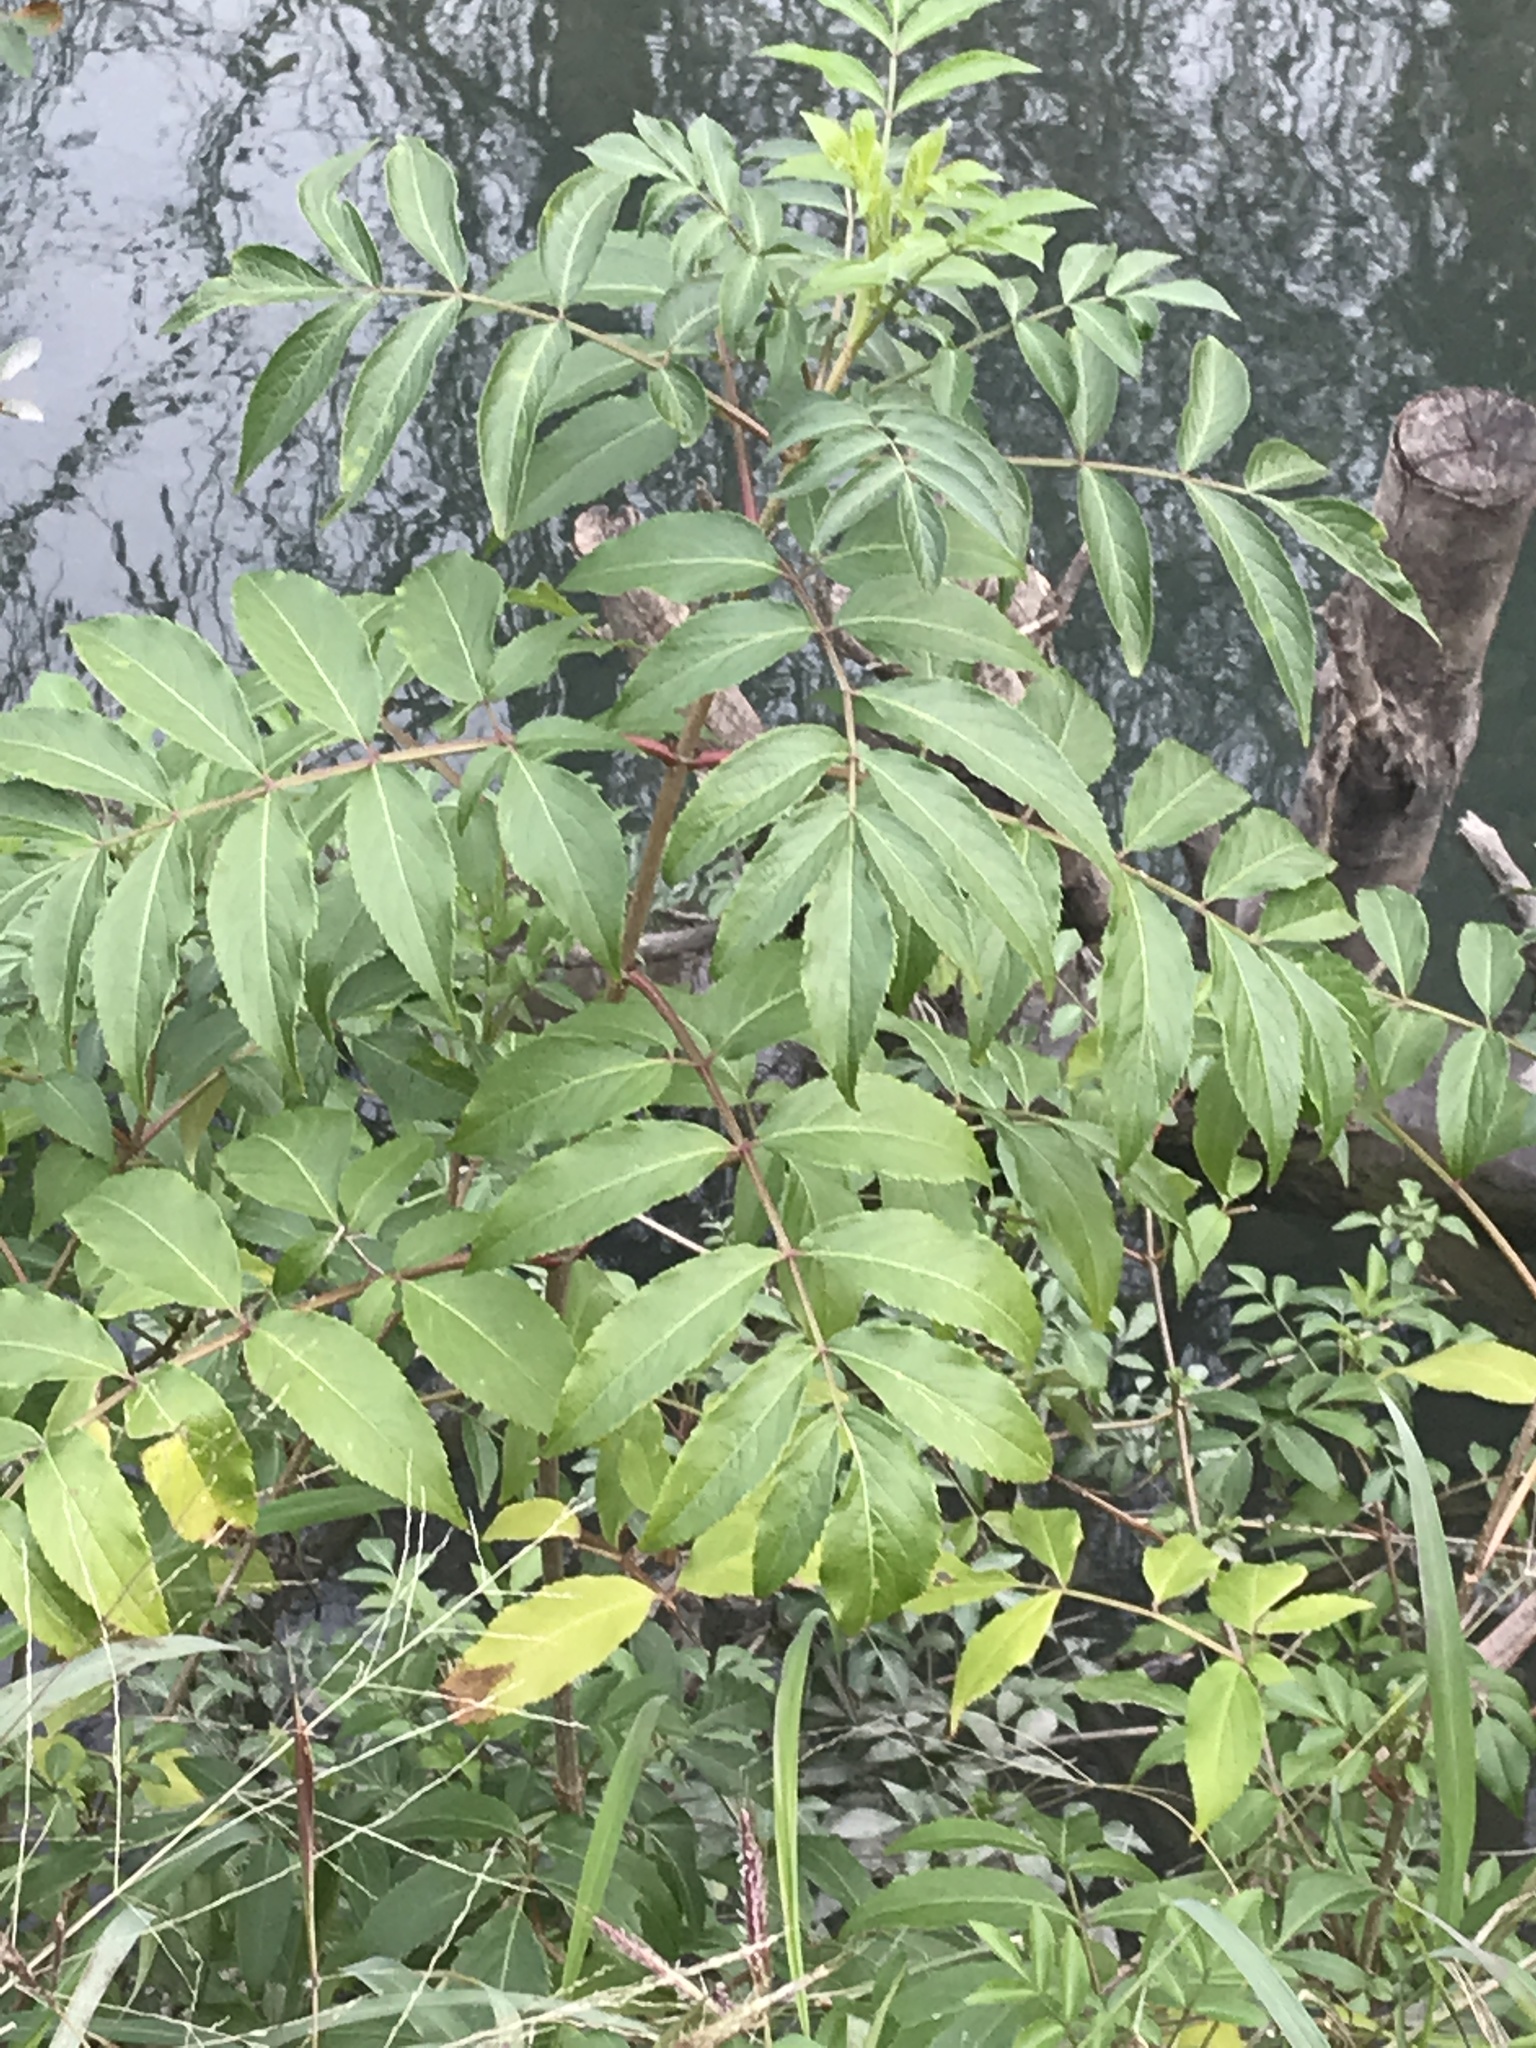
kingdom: Plantae
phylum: Tracheophyta
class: Magnoliopsida
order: Dipsacales
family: Viburnaceae
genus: Sambucus
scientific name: Sambucus canadensis
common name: American elder
